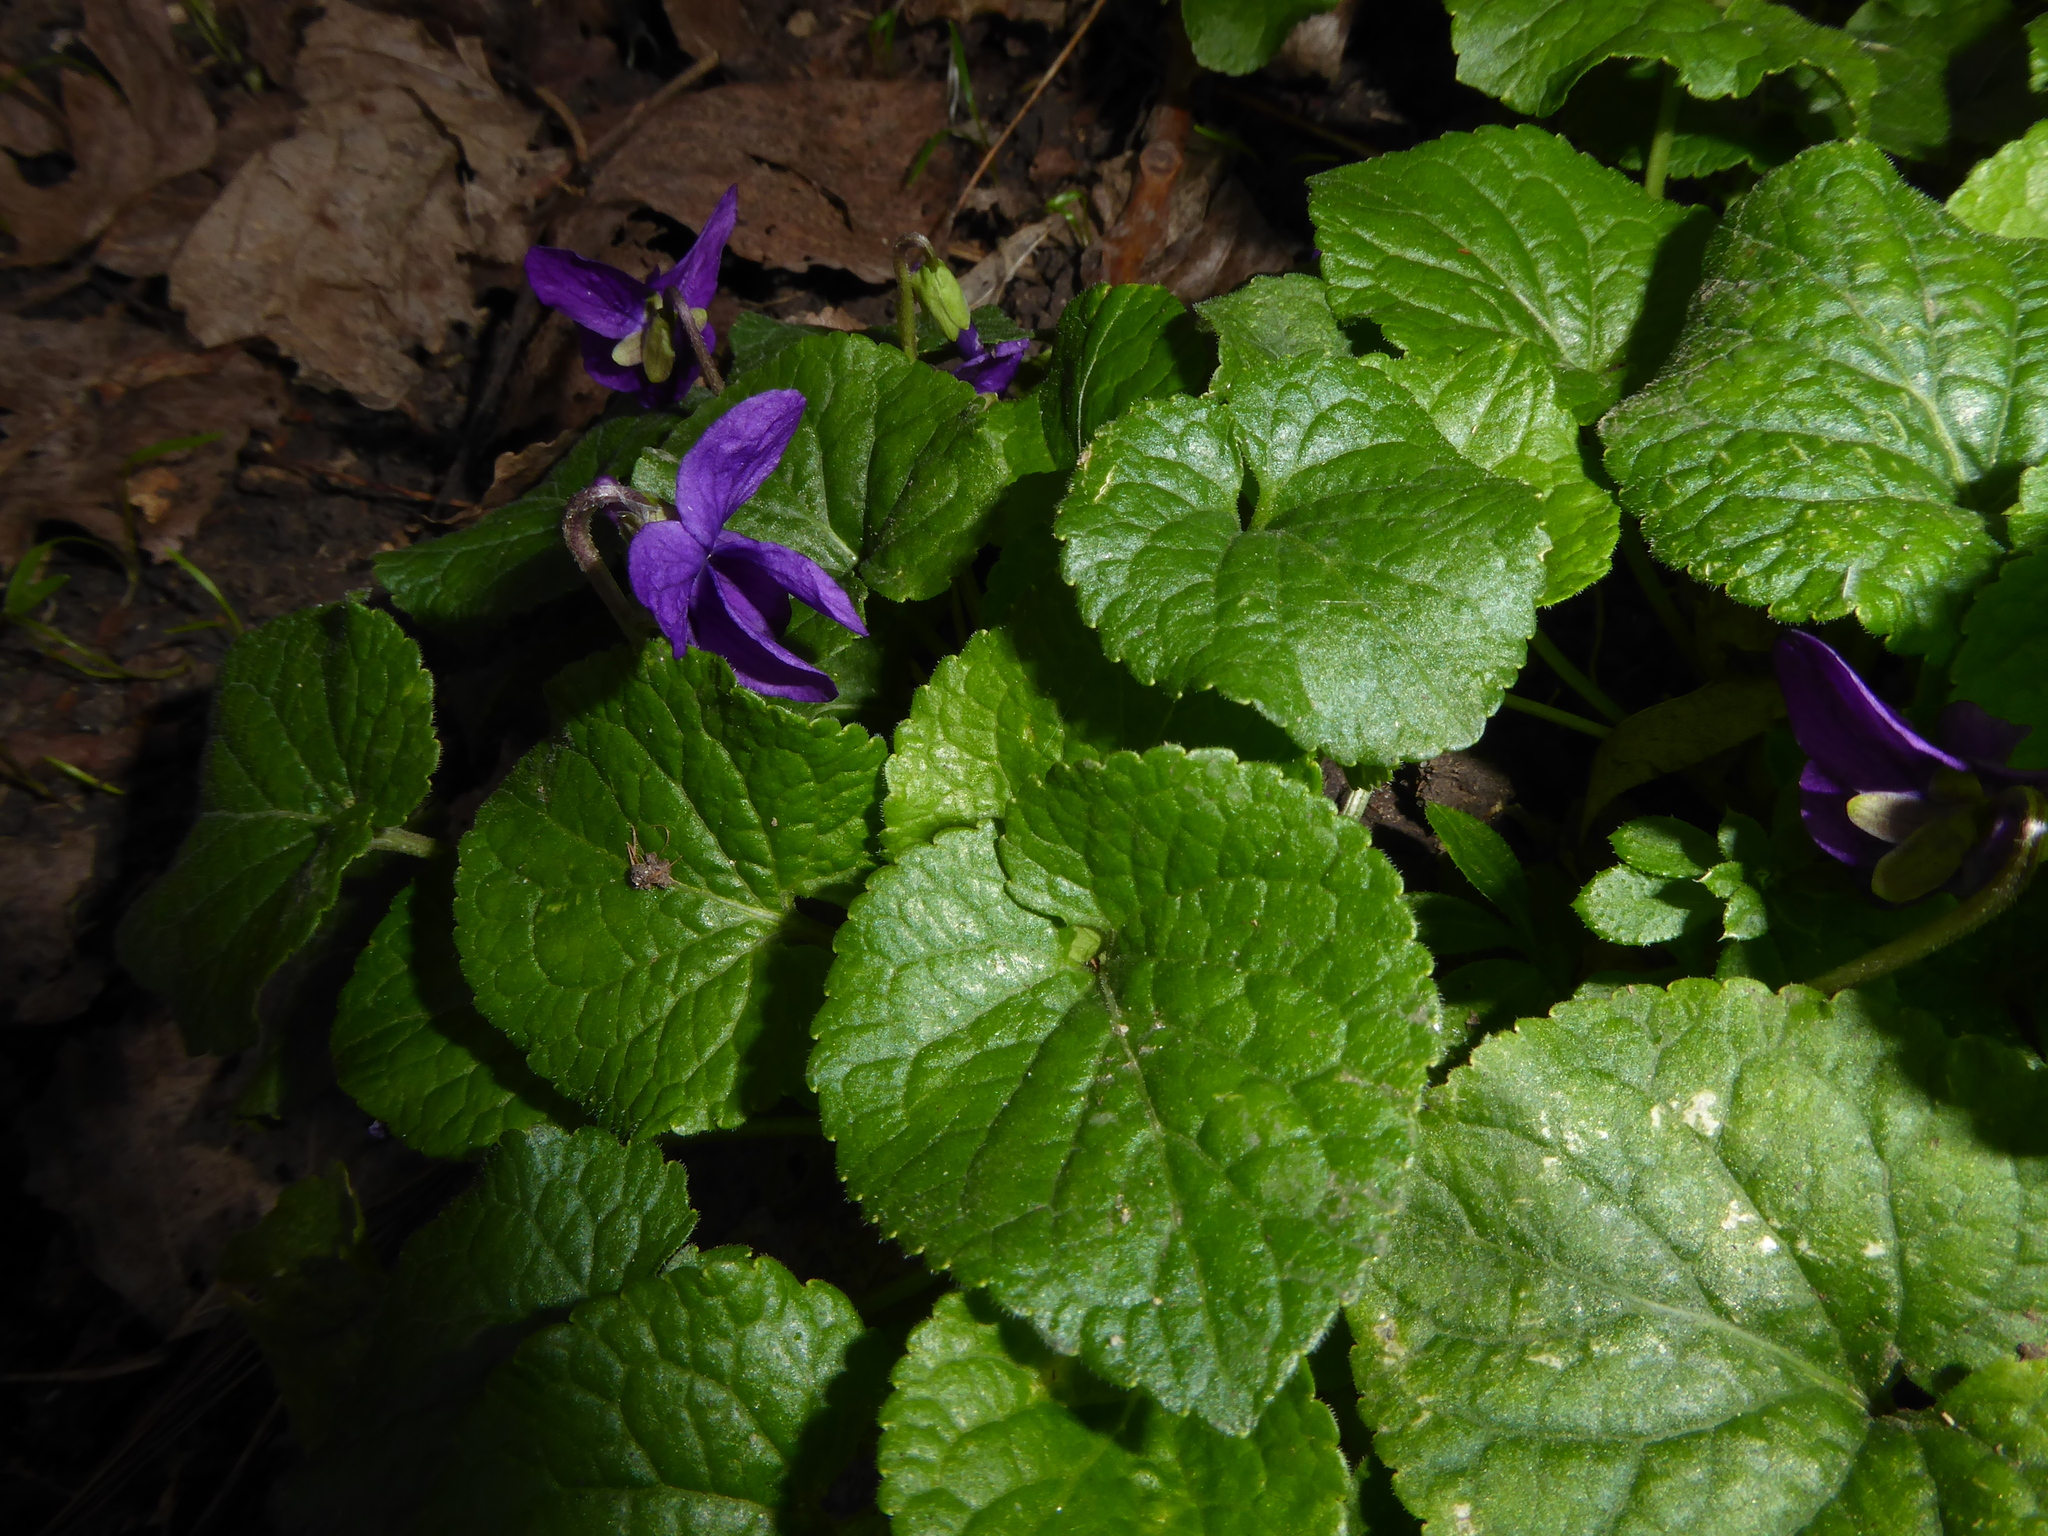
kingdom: Plantae
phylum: Tracheophyta
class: Magnoliopsida
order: Malpighiales
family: Violaceae
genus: Viola
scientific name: Viola odorata
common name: Sweet violet
